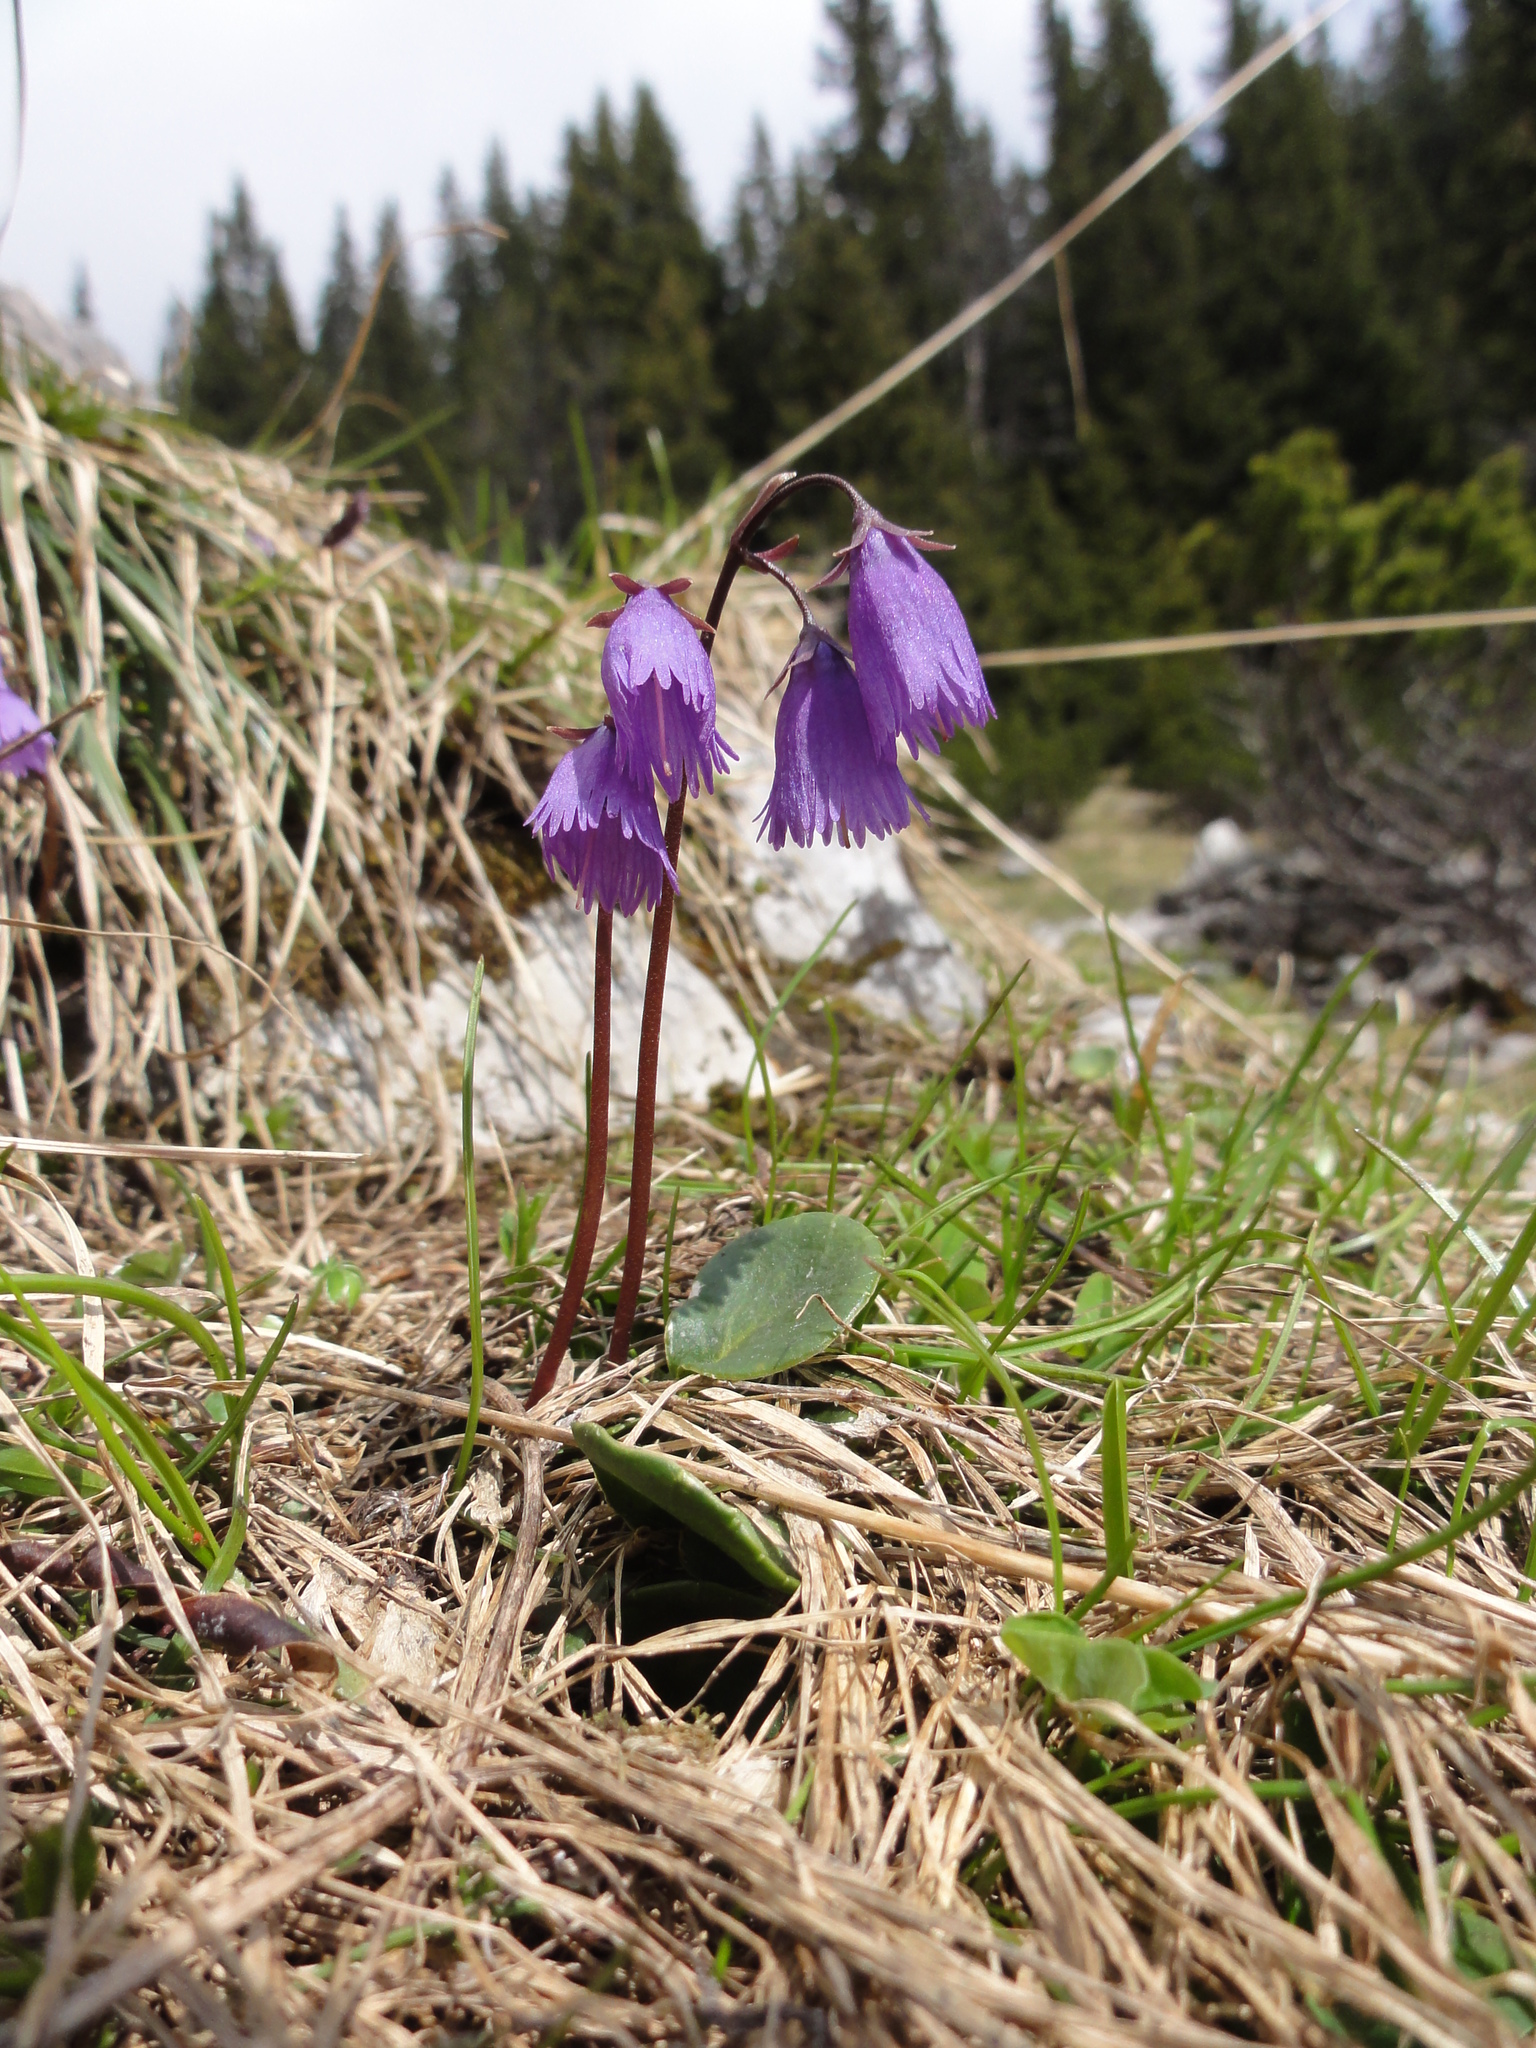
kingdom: Plantae
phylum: Tracheophyta
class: Magnoliopsida
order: Ericales
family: Primulaceae
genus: Soldanella
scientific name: Soldanella alpina
